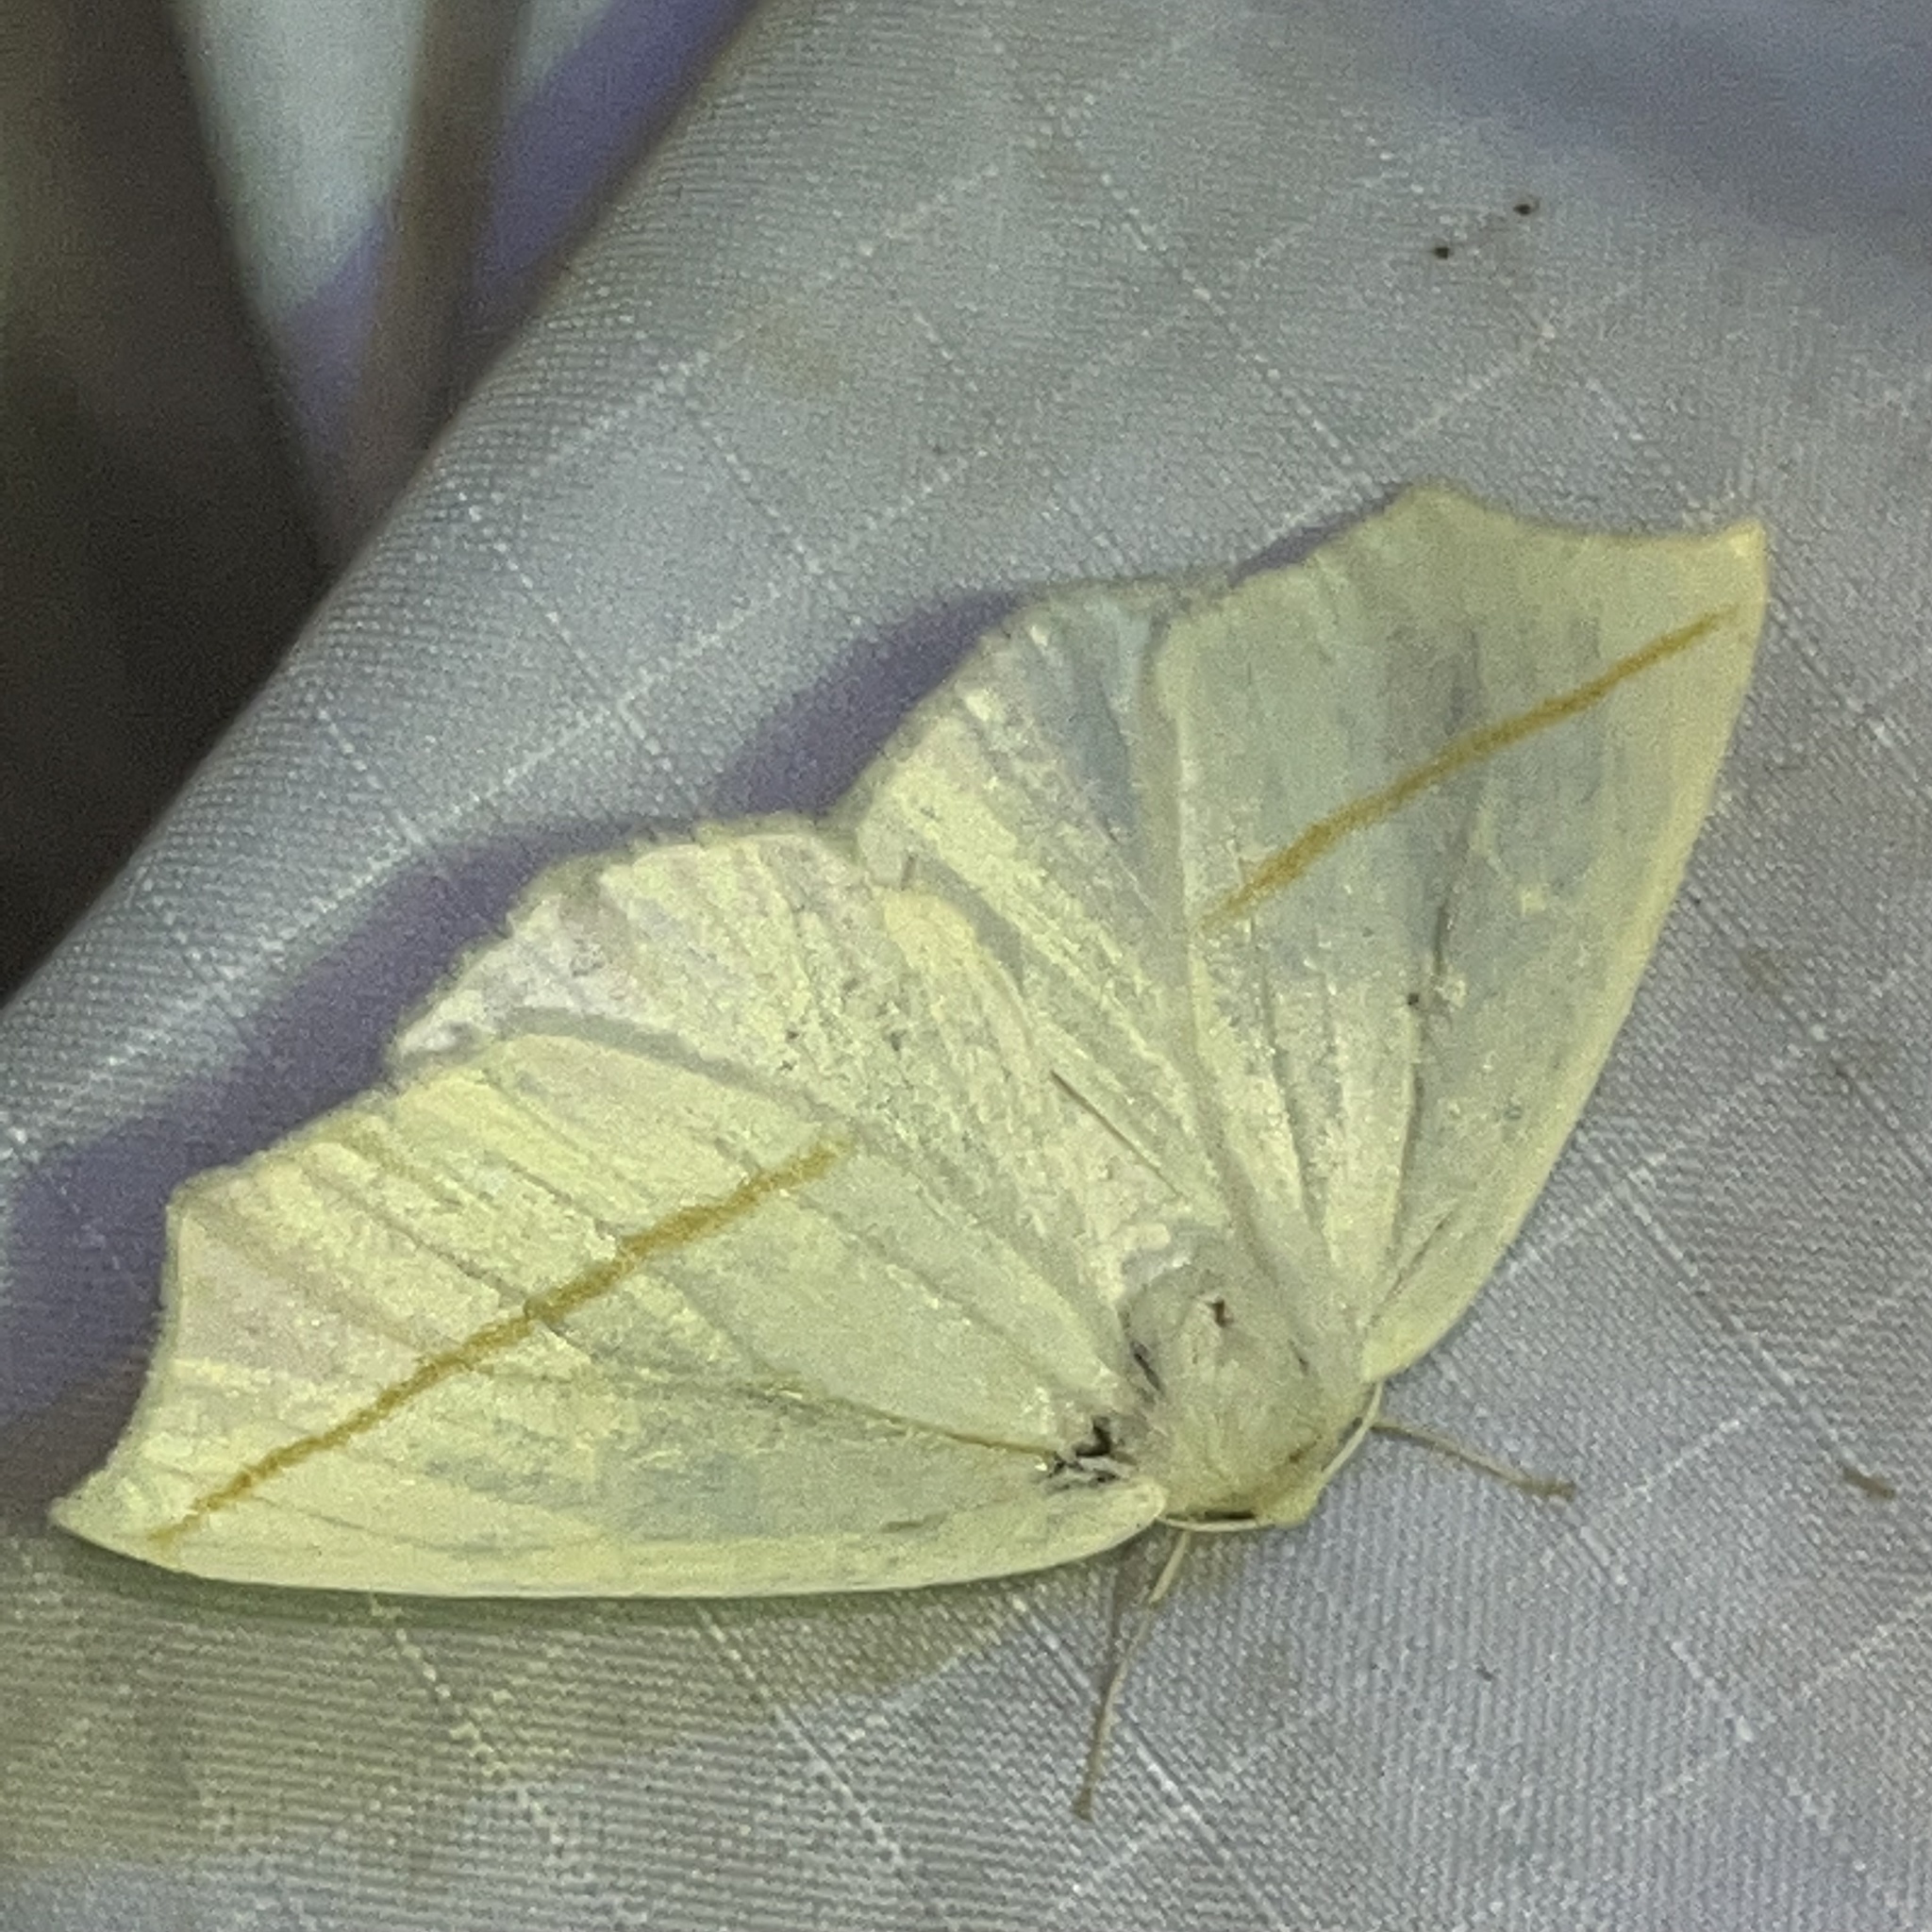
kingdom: Animalia
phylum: Arthropoda
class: Insecta
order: Lepidoptera
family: Geometridae
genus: Tetracis
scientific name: Tetracis cachexiata
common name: White slant-line
